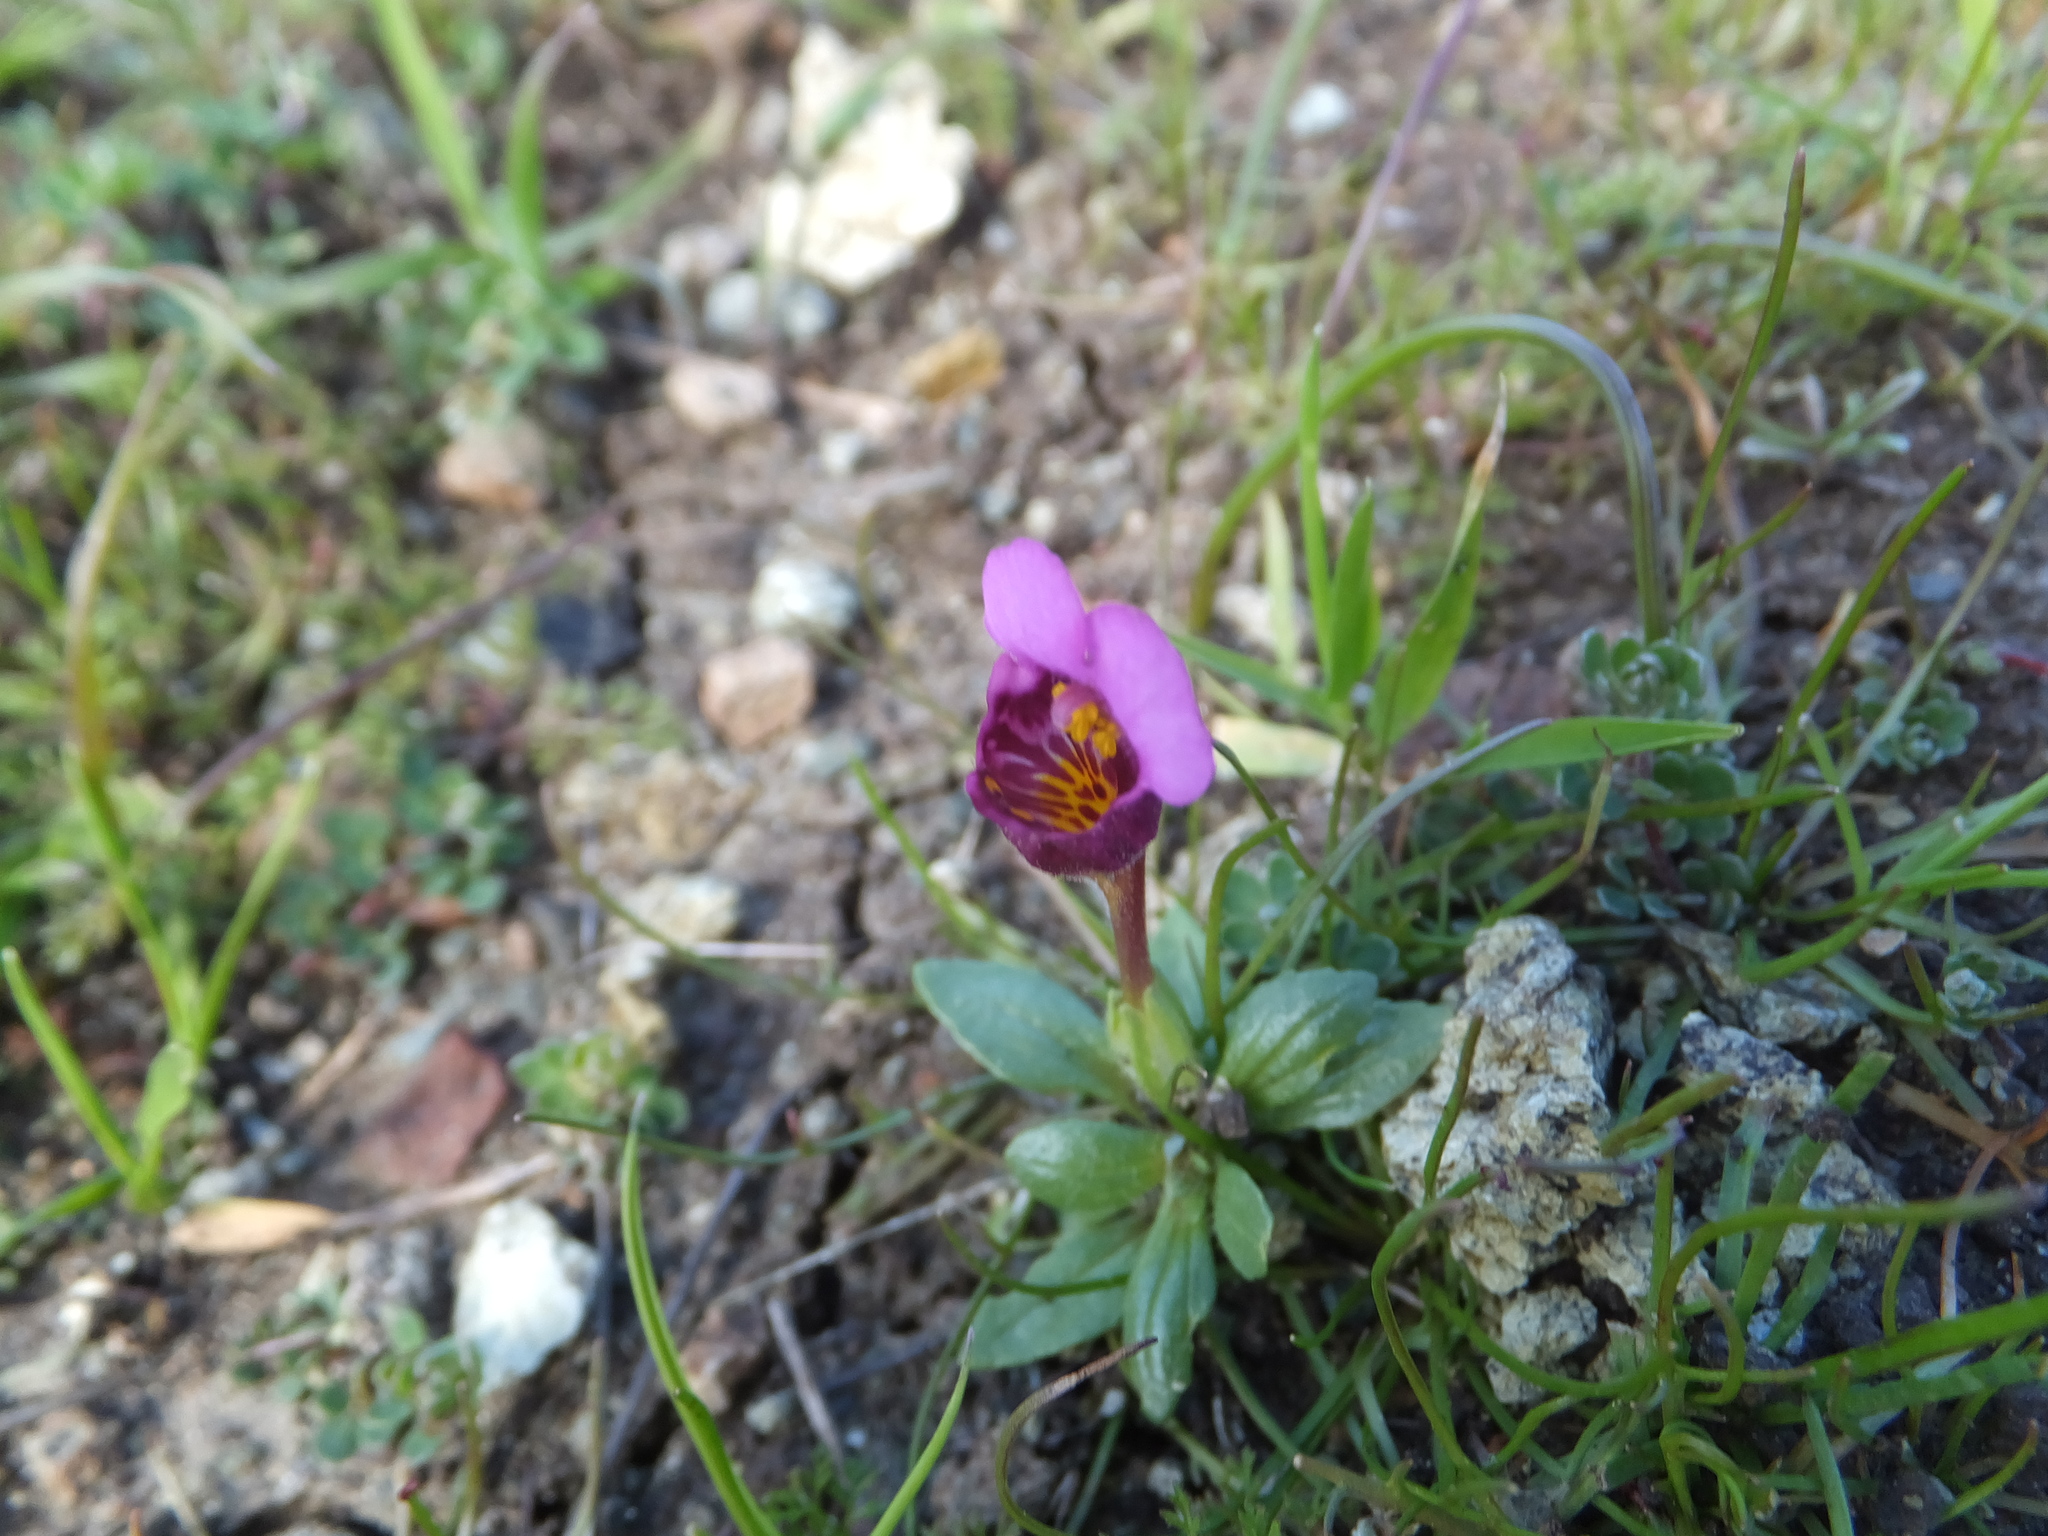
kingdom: Plantae
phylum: Tracheophyta
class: Magnoliopsida
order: Lamiales
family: Phrymaceae
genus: Diplacus
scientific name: Diplacus douglasii
